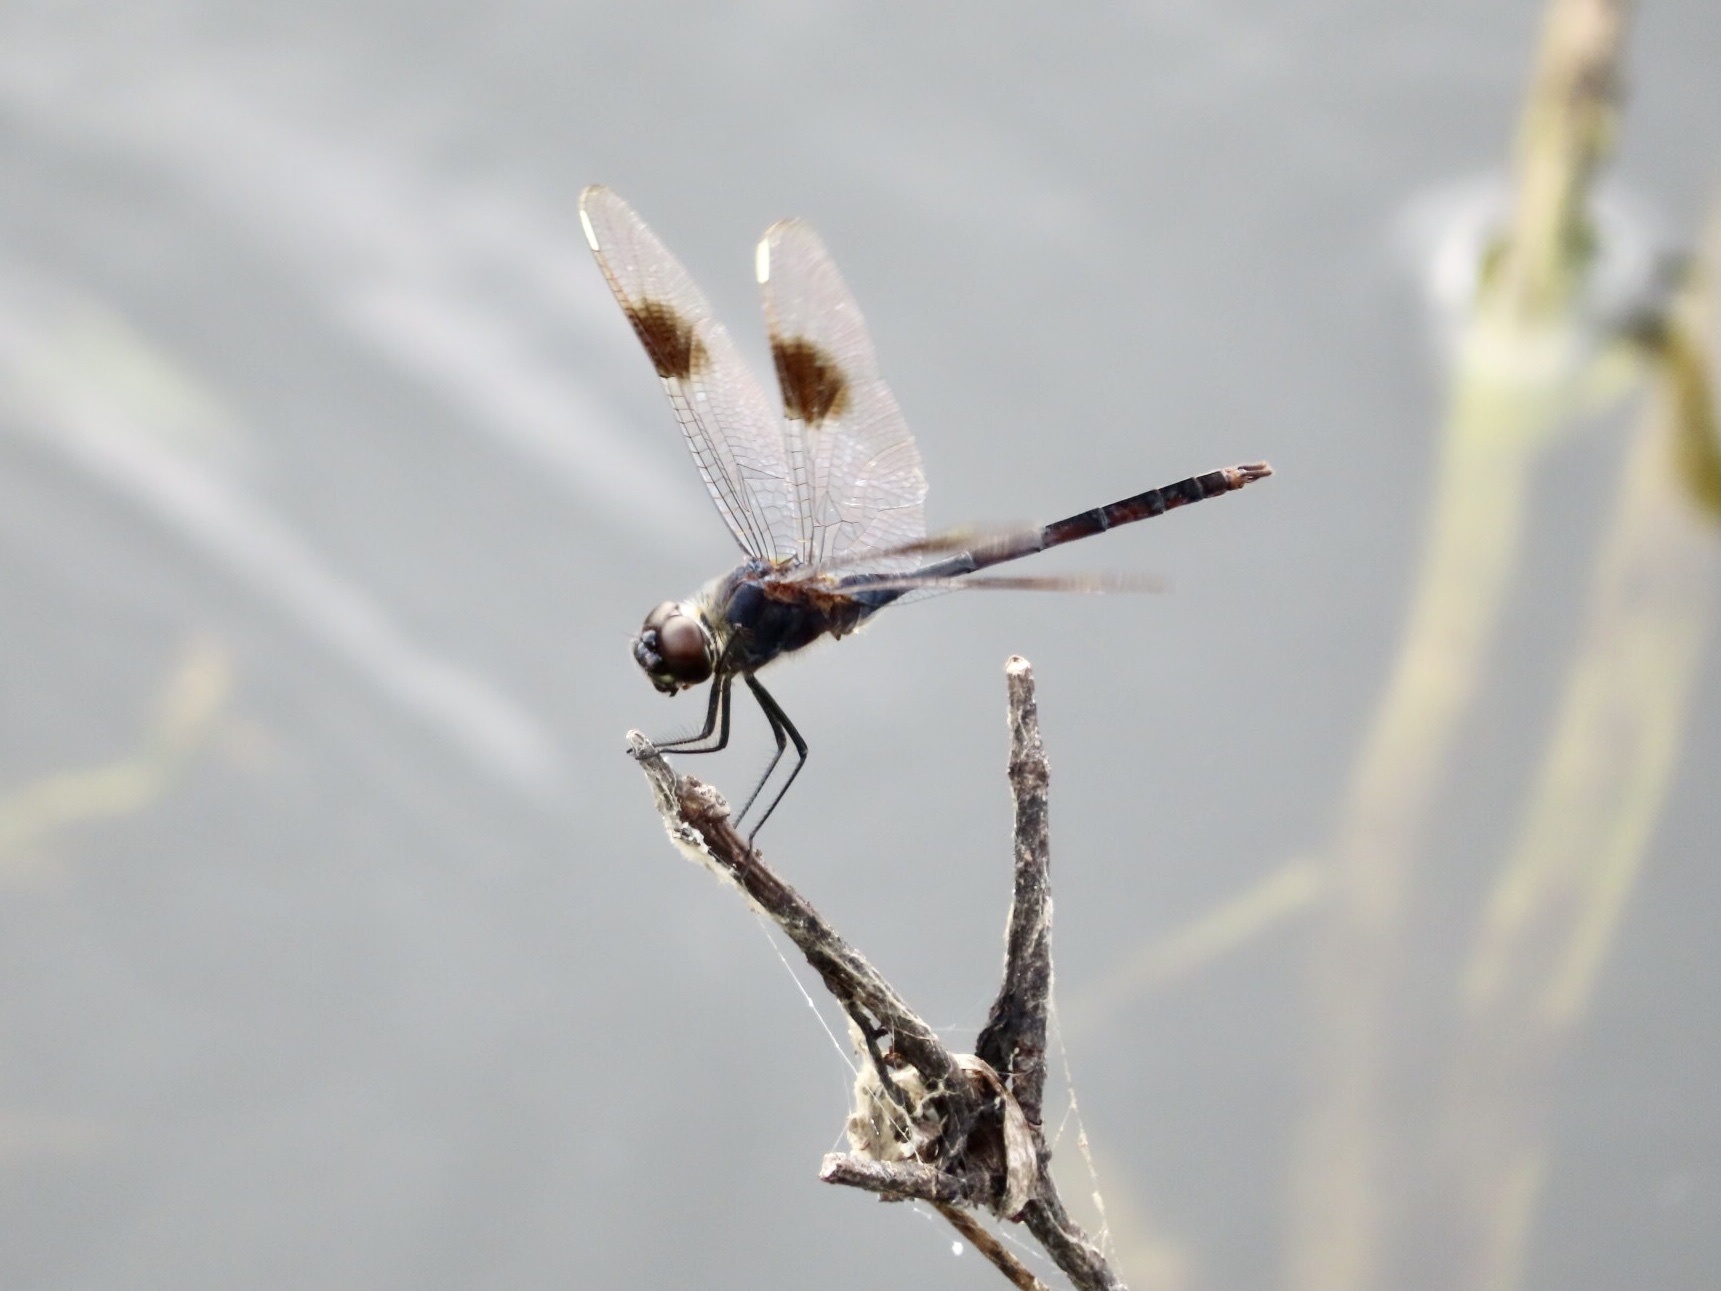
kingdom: Animalia
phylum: Arthropoda
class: Insecta
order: Odonata
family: Libellulidae
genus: Brachymesia
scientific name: Brachymesia gravida
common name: Four-spotted pennant
